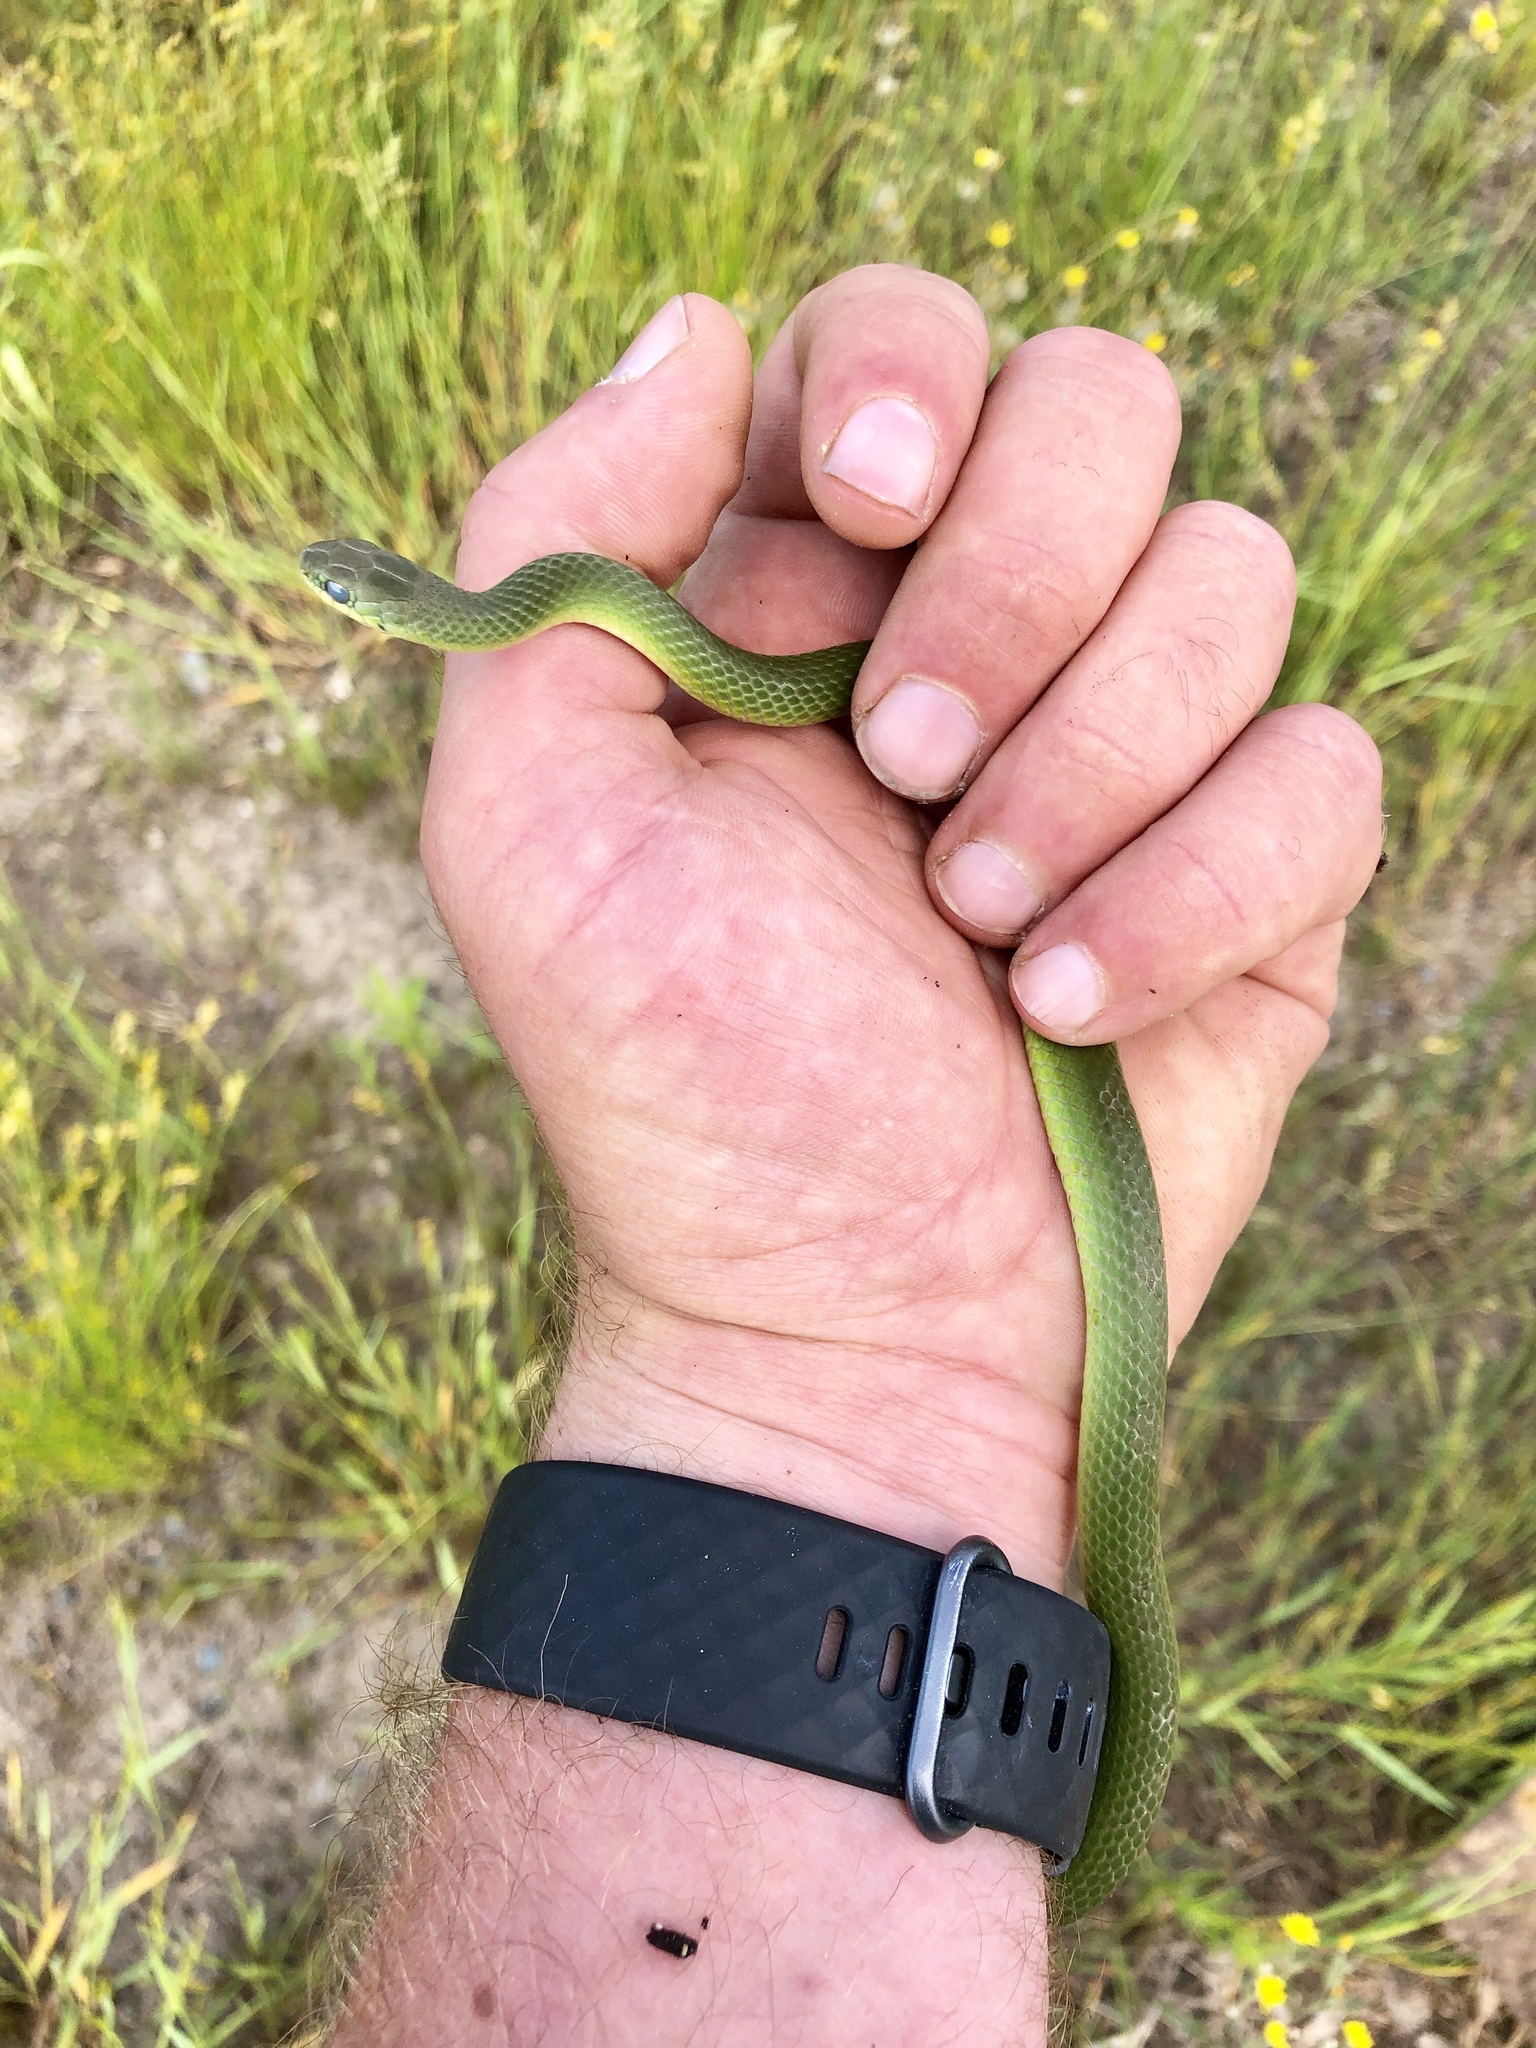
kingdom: Animalia
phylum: Chordata
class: Squamata
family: Colubridae
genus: Opheodrys
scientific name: Opheodrys vernalis
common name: Smooth green snake
